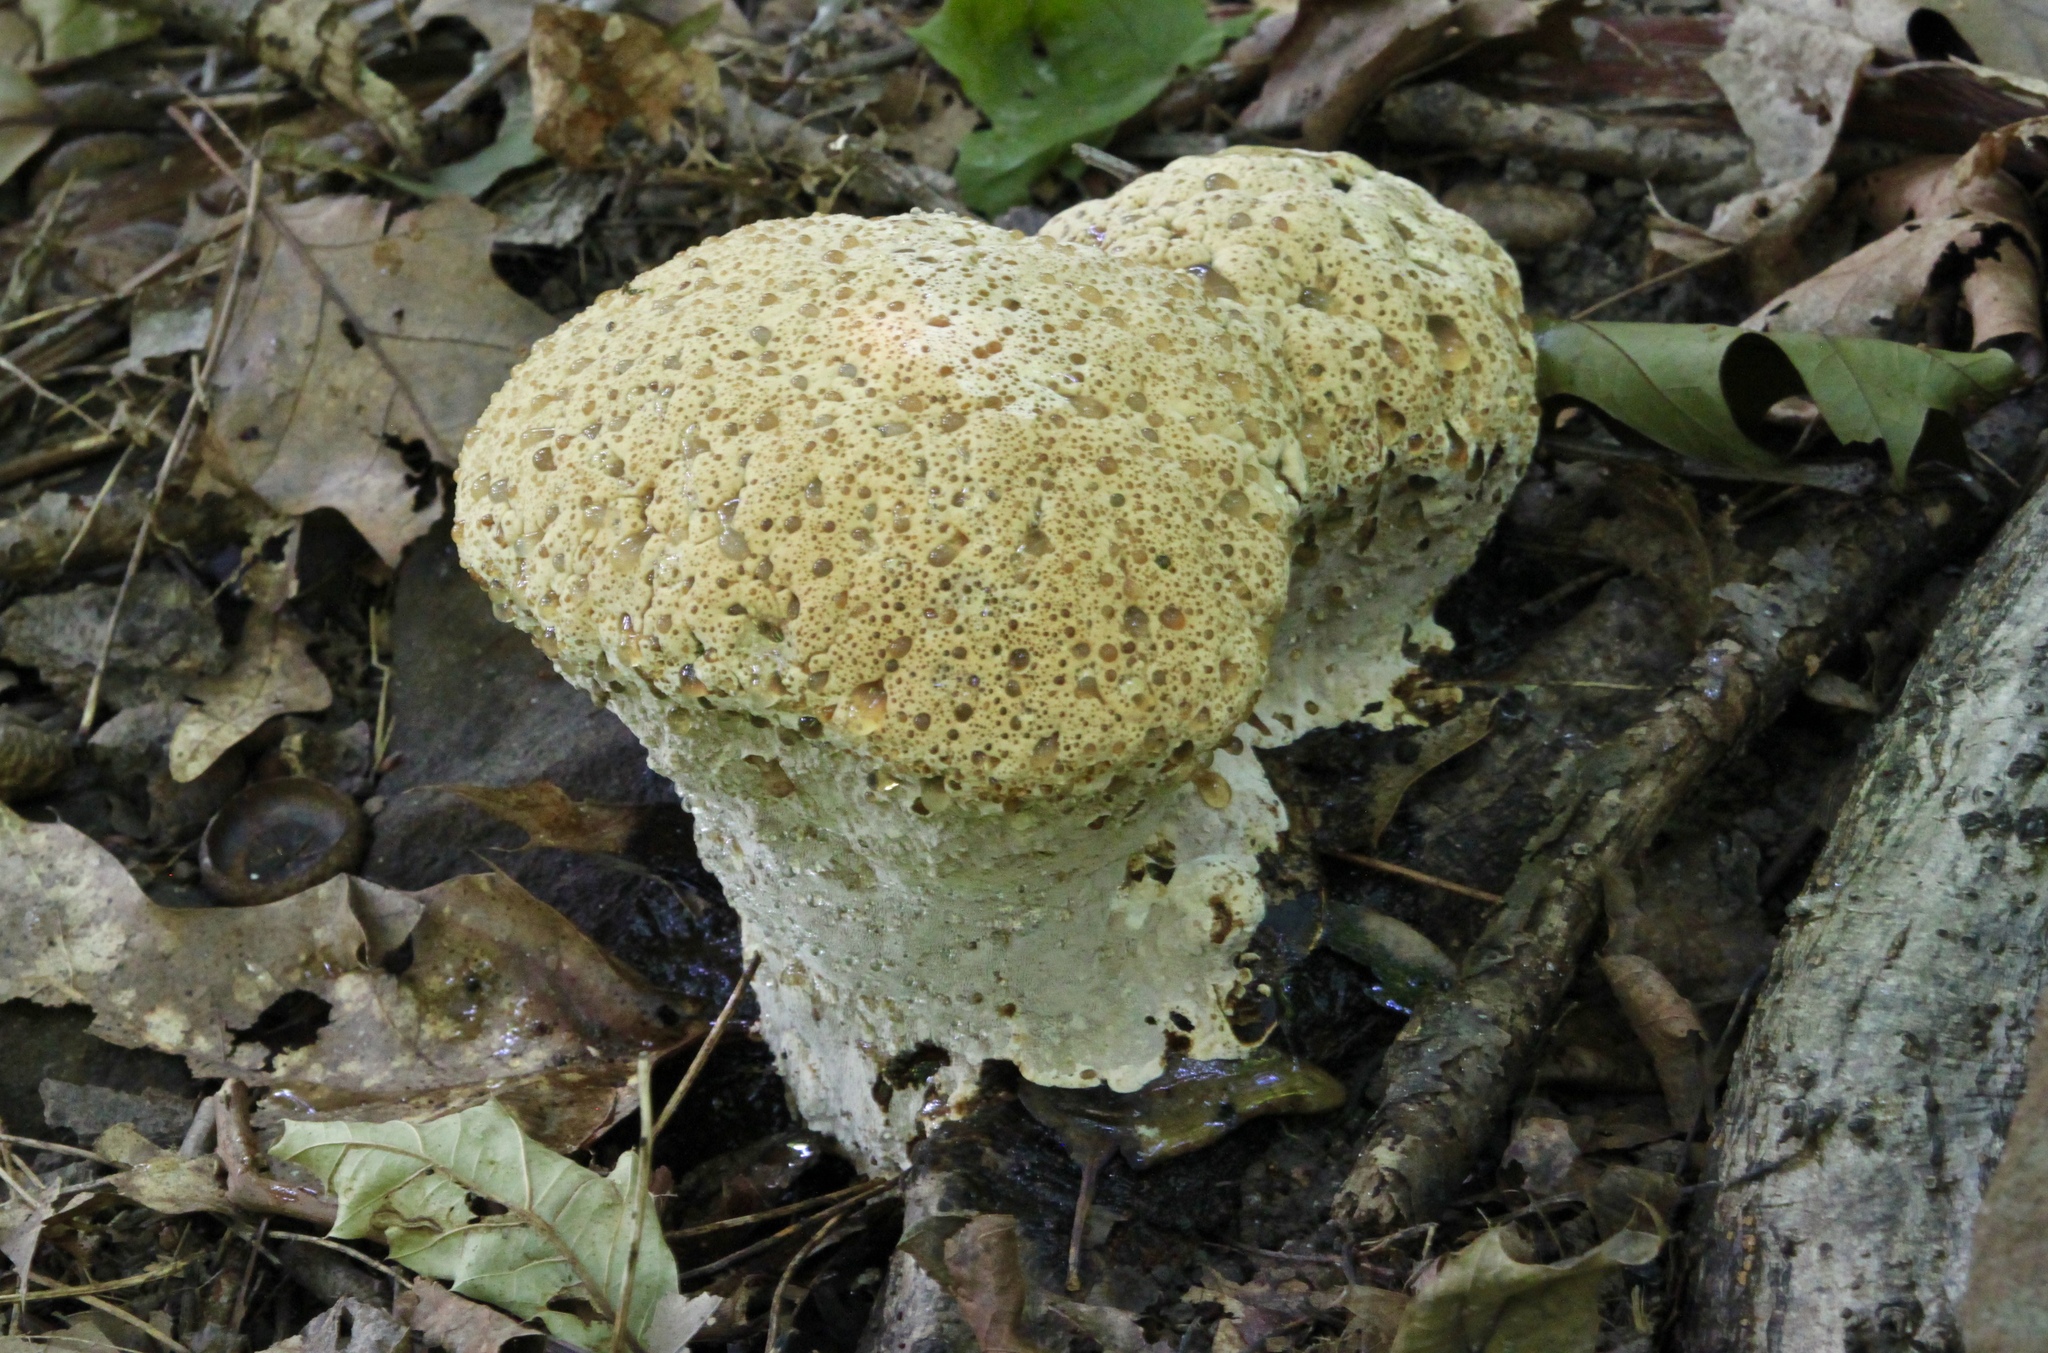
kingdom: Fungi
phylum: Basidiomycota
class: Agaricomycetes
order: Hymenochaetales
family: Hymenochaetaceae
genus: Pseudoinonotus
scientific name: Pseudoinonotus dryadeus
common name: Oak bracket
